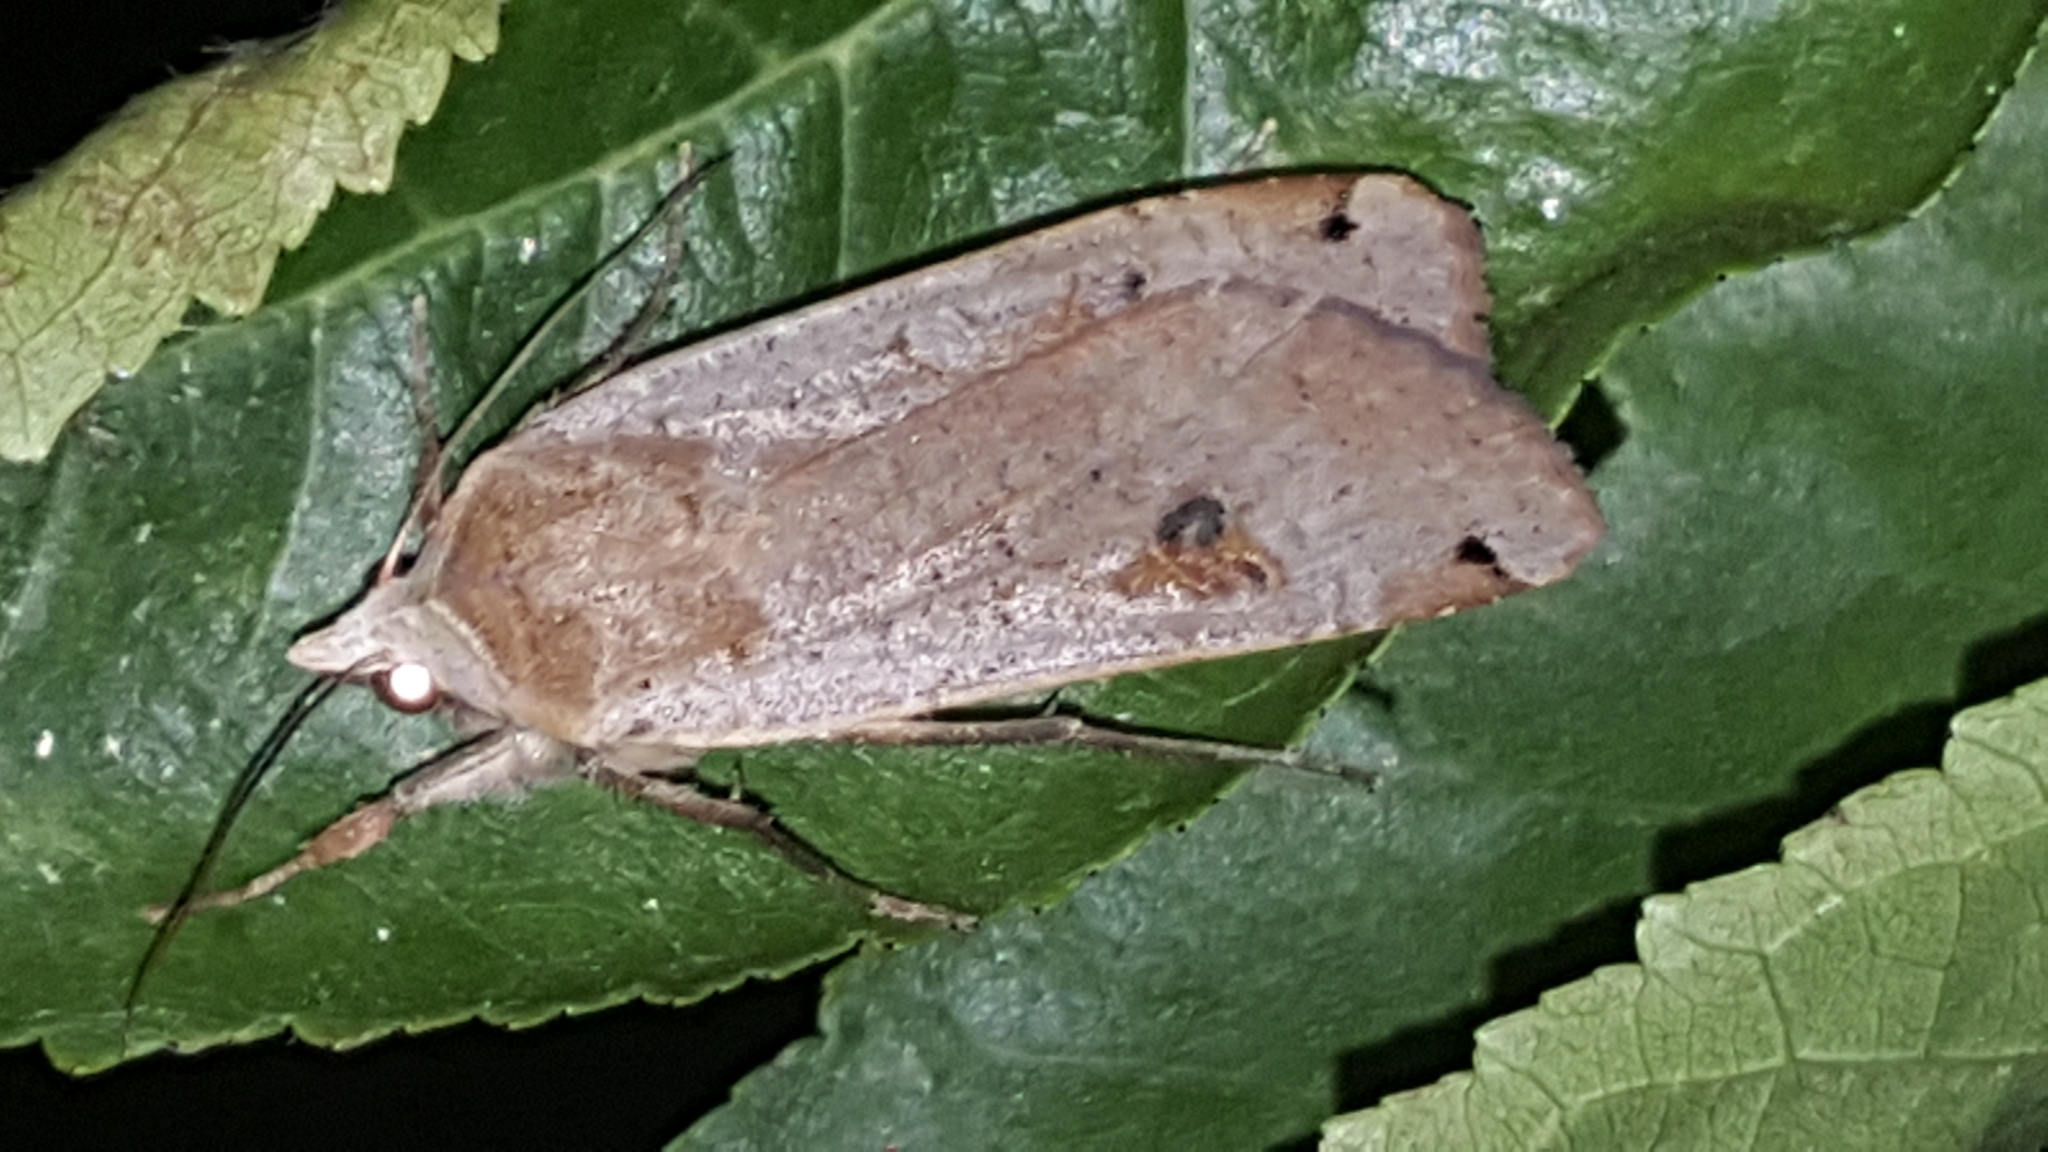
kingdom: Animalia
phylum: Arthropoda
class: Insecta
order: Lepidoptera
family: Noctuidae
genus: Noctua
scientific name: Noctua pronuba
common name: Large yellow underwing
